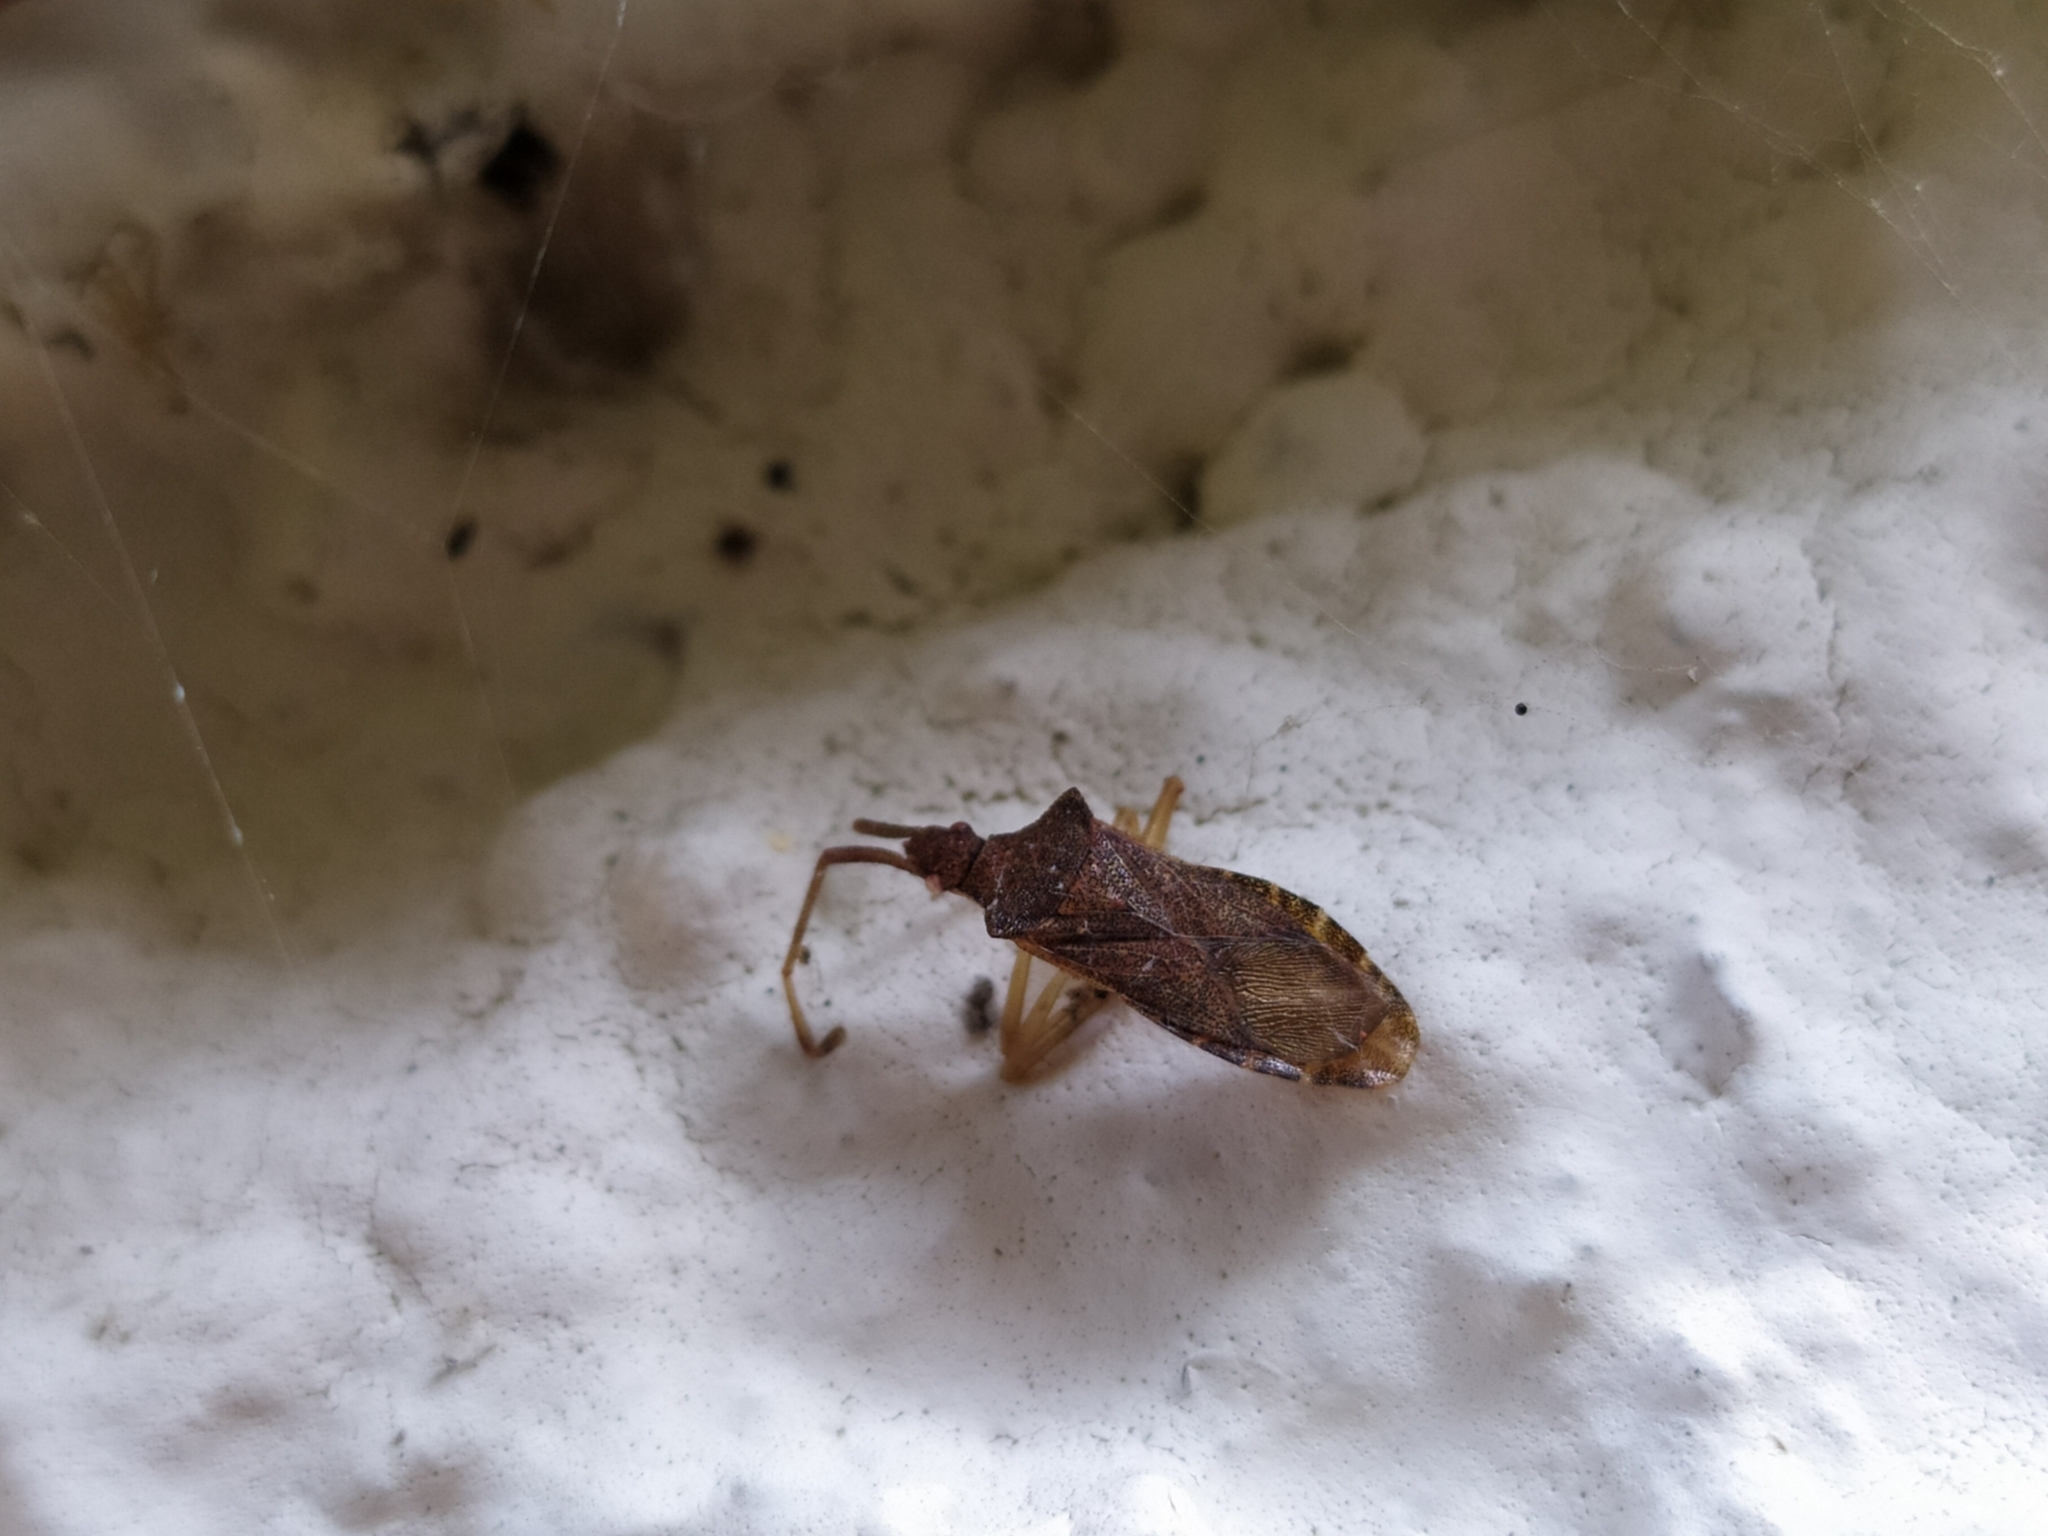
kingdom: Animalia
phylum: Arthropoda
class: Insecta
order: Hemiptera
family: Coreidae
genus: Gonocerus
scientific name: Gonocerus acuteangulatus
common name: Box bug
